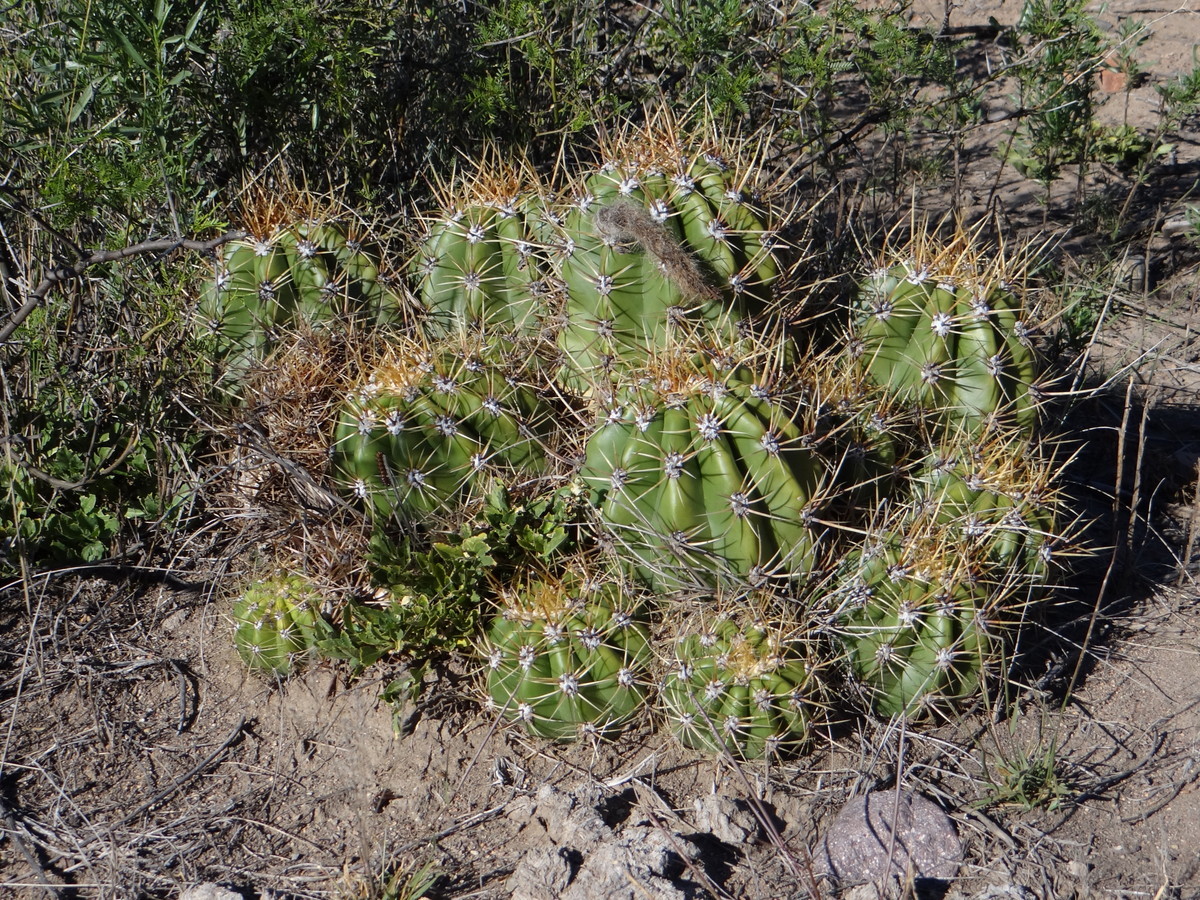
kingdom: Plantae
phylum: Tracheophyta
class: Magnoliopsida
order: Caryophyllales
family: Cactaceae
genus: Soehrensia
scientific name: Soehrensia candicans
